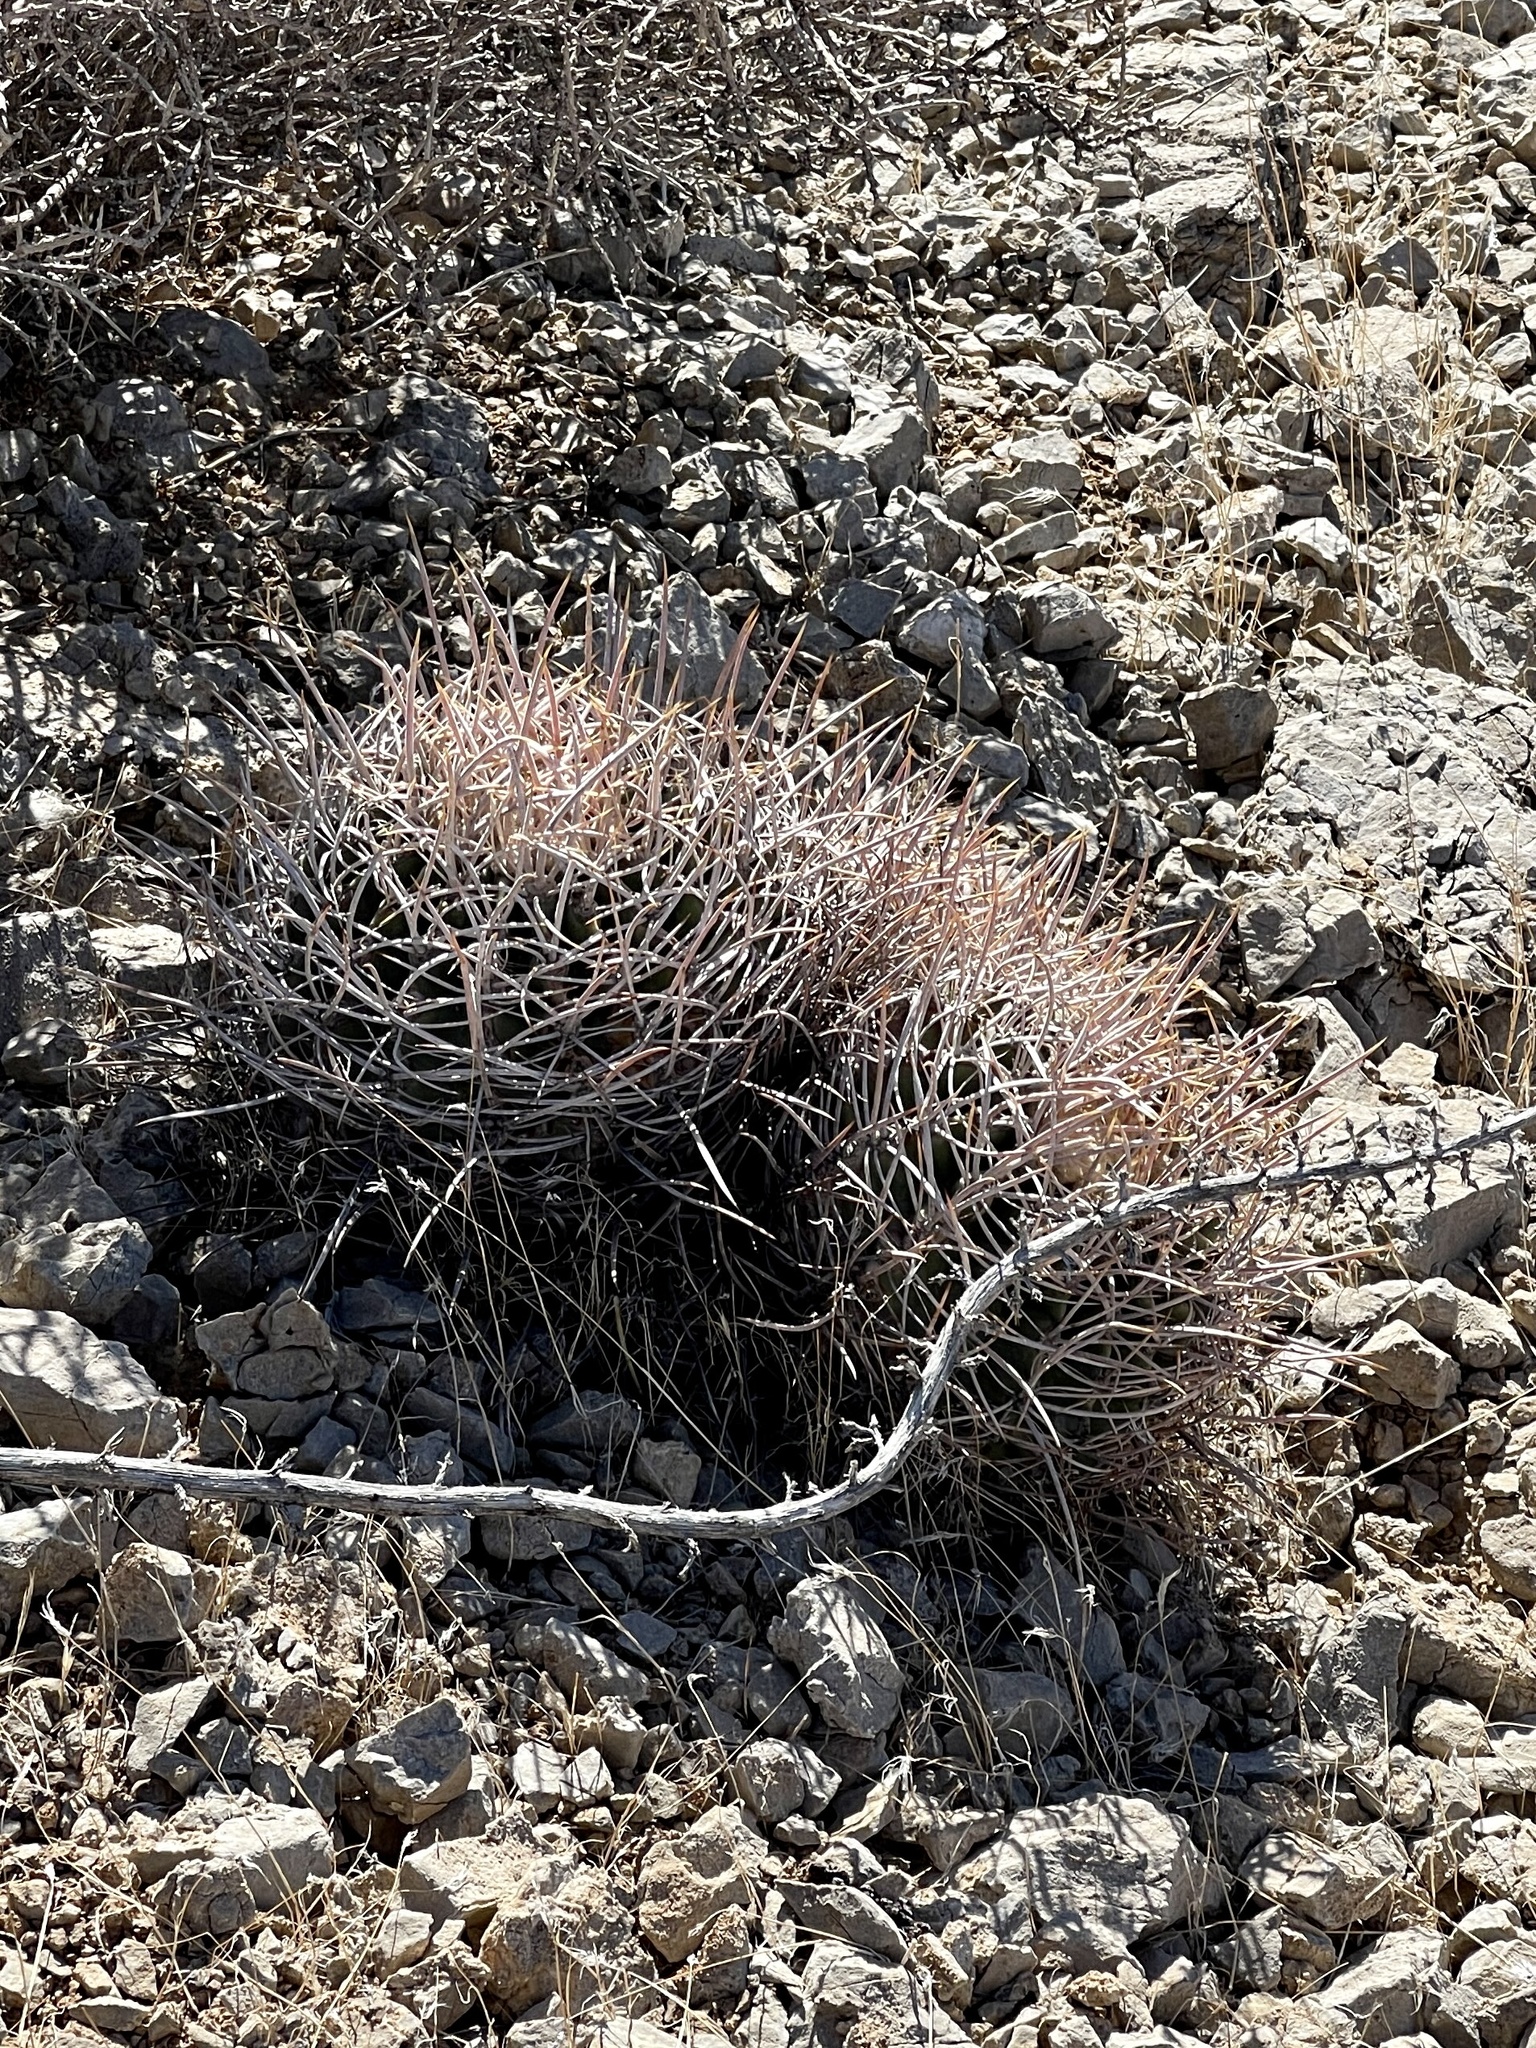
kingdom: Plantae
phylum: Tracheophyta
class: Magnoliopsida
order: Caryophyllales
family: Cactaceae
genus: Echinocactus
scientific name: Echinocactus polycephalus
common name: Cottontop cactus
